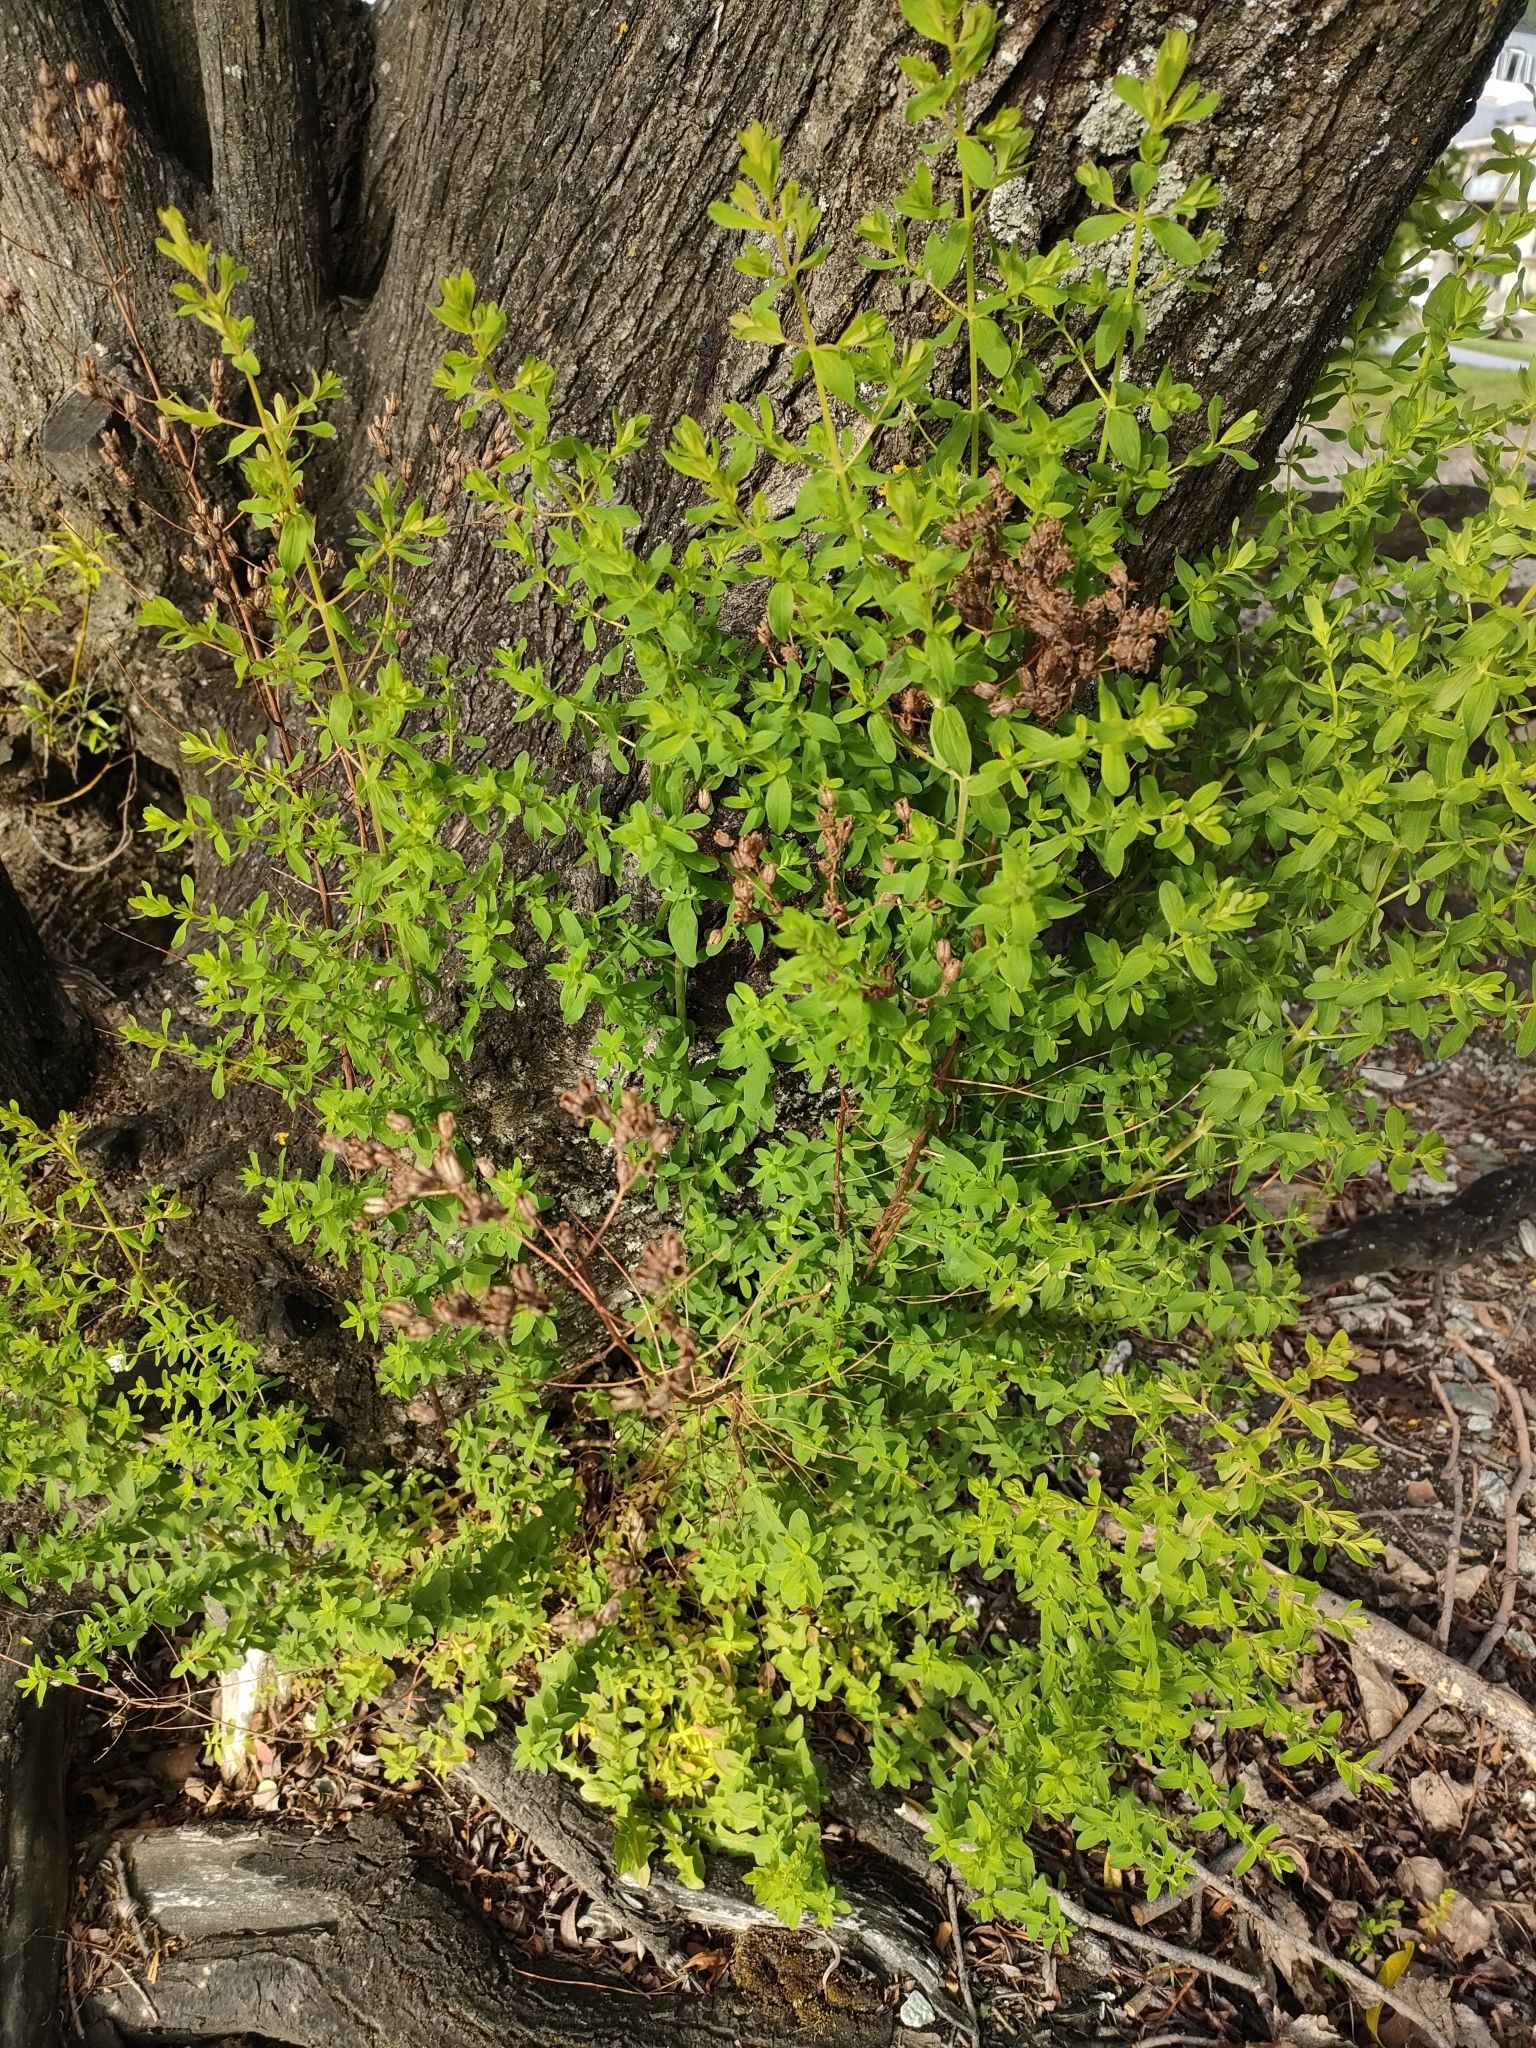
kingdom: Plantae
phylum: Tracheophyta
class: Magnoliopsida
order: Malpighiales
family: Hypericaceae
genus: Hypericum
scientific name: Hypericum perforatum
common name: Common st. johnswort
